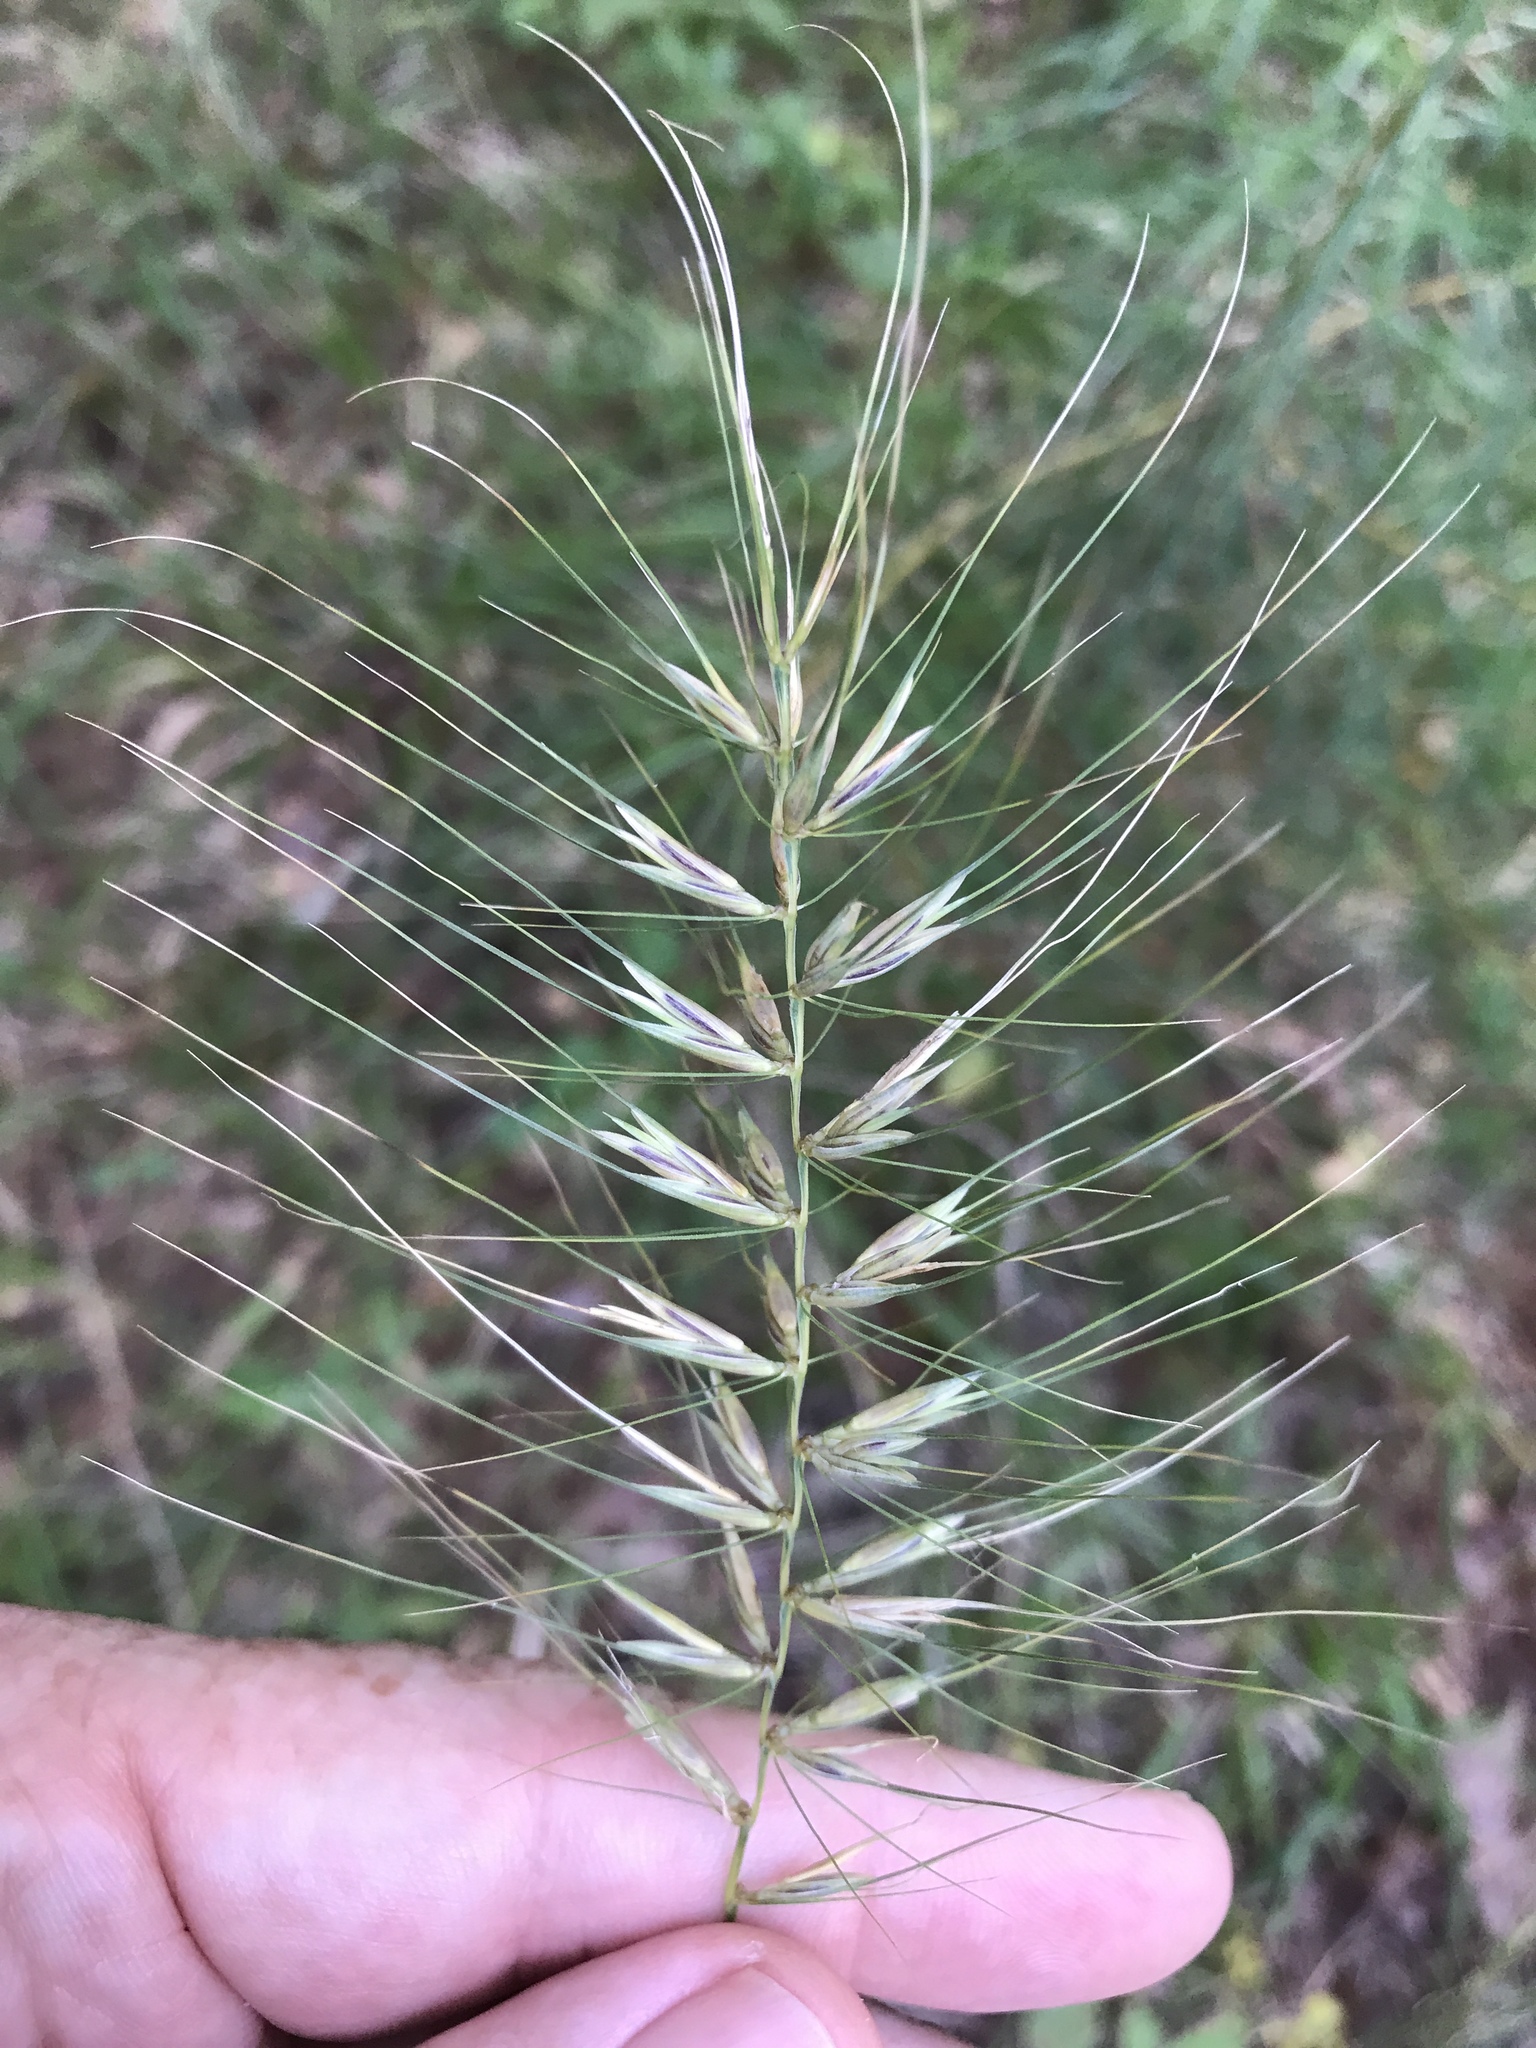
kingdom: Plantae
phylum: Tracheophyta
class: Liliopsida
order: Poales
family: Poaceae
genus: Elymus
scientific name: Elymus hystrix
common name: Bottlebrush grass
